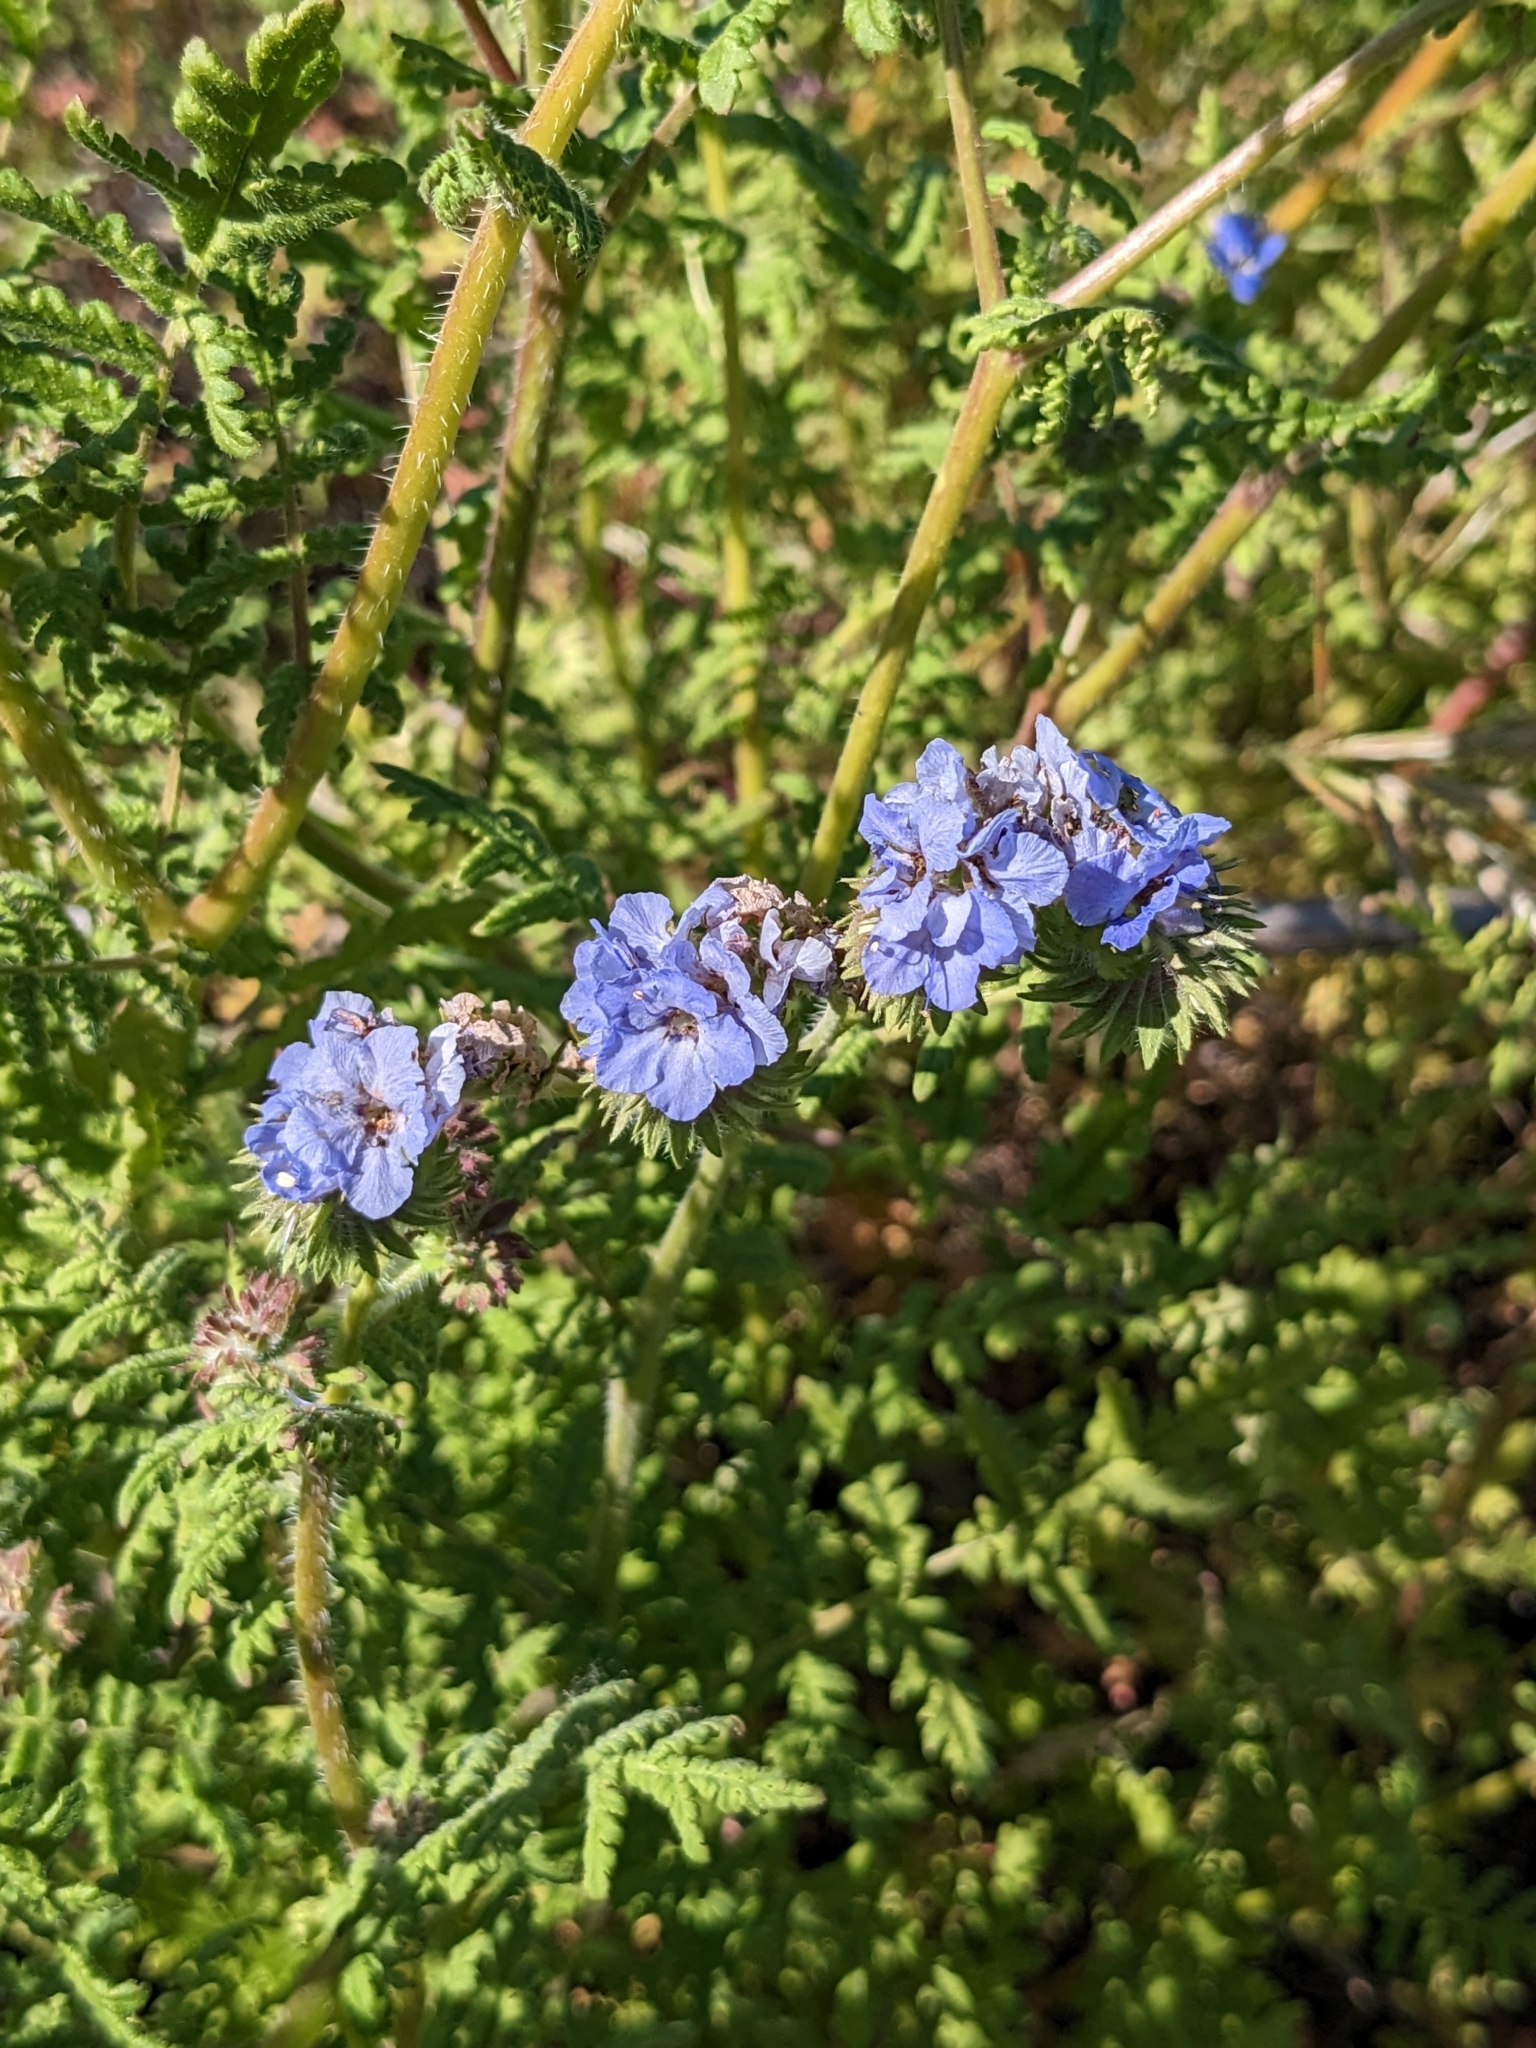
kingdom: Plantae
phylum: Tracheophyta
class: Magnoliopsida
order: Boraginales
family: Hydrophyllaceae
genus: Phacelia
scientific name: Phacelia distans
